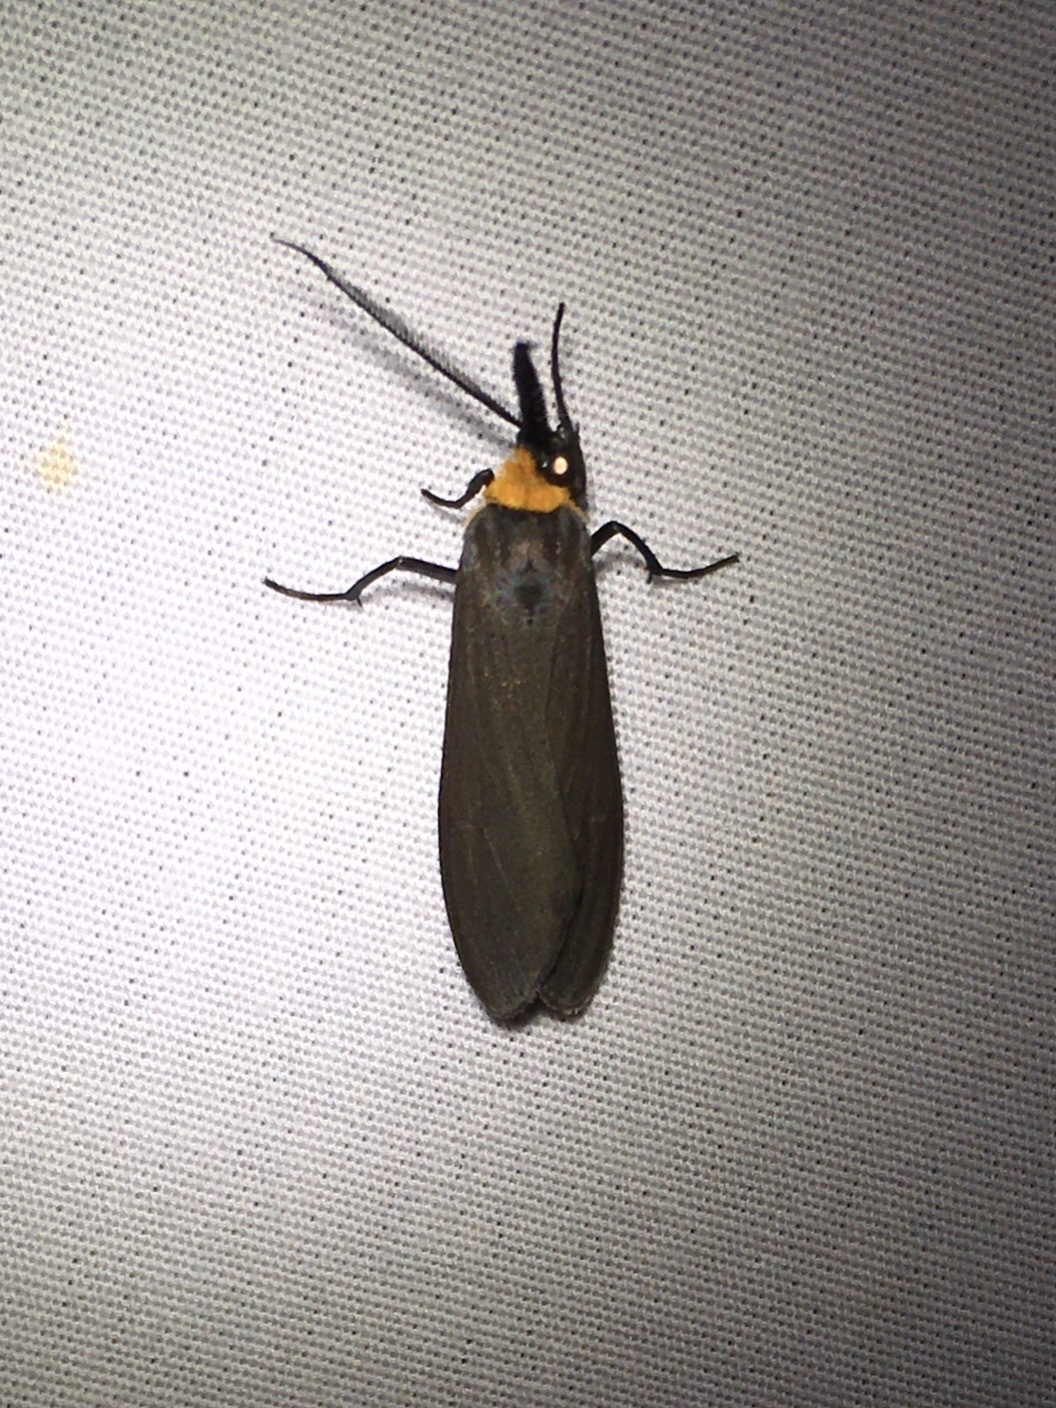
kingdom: Animalia
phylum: Arthropoda
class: Insecta
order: Lepidoptera
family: Erebidae
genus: Cisseps
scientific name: Cisseps fulvicollis
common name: Yellow-collared scape moth
